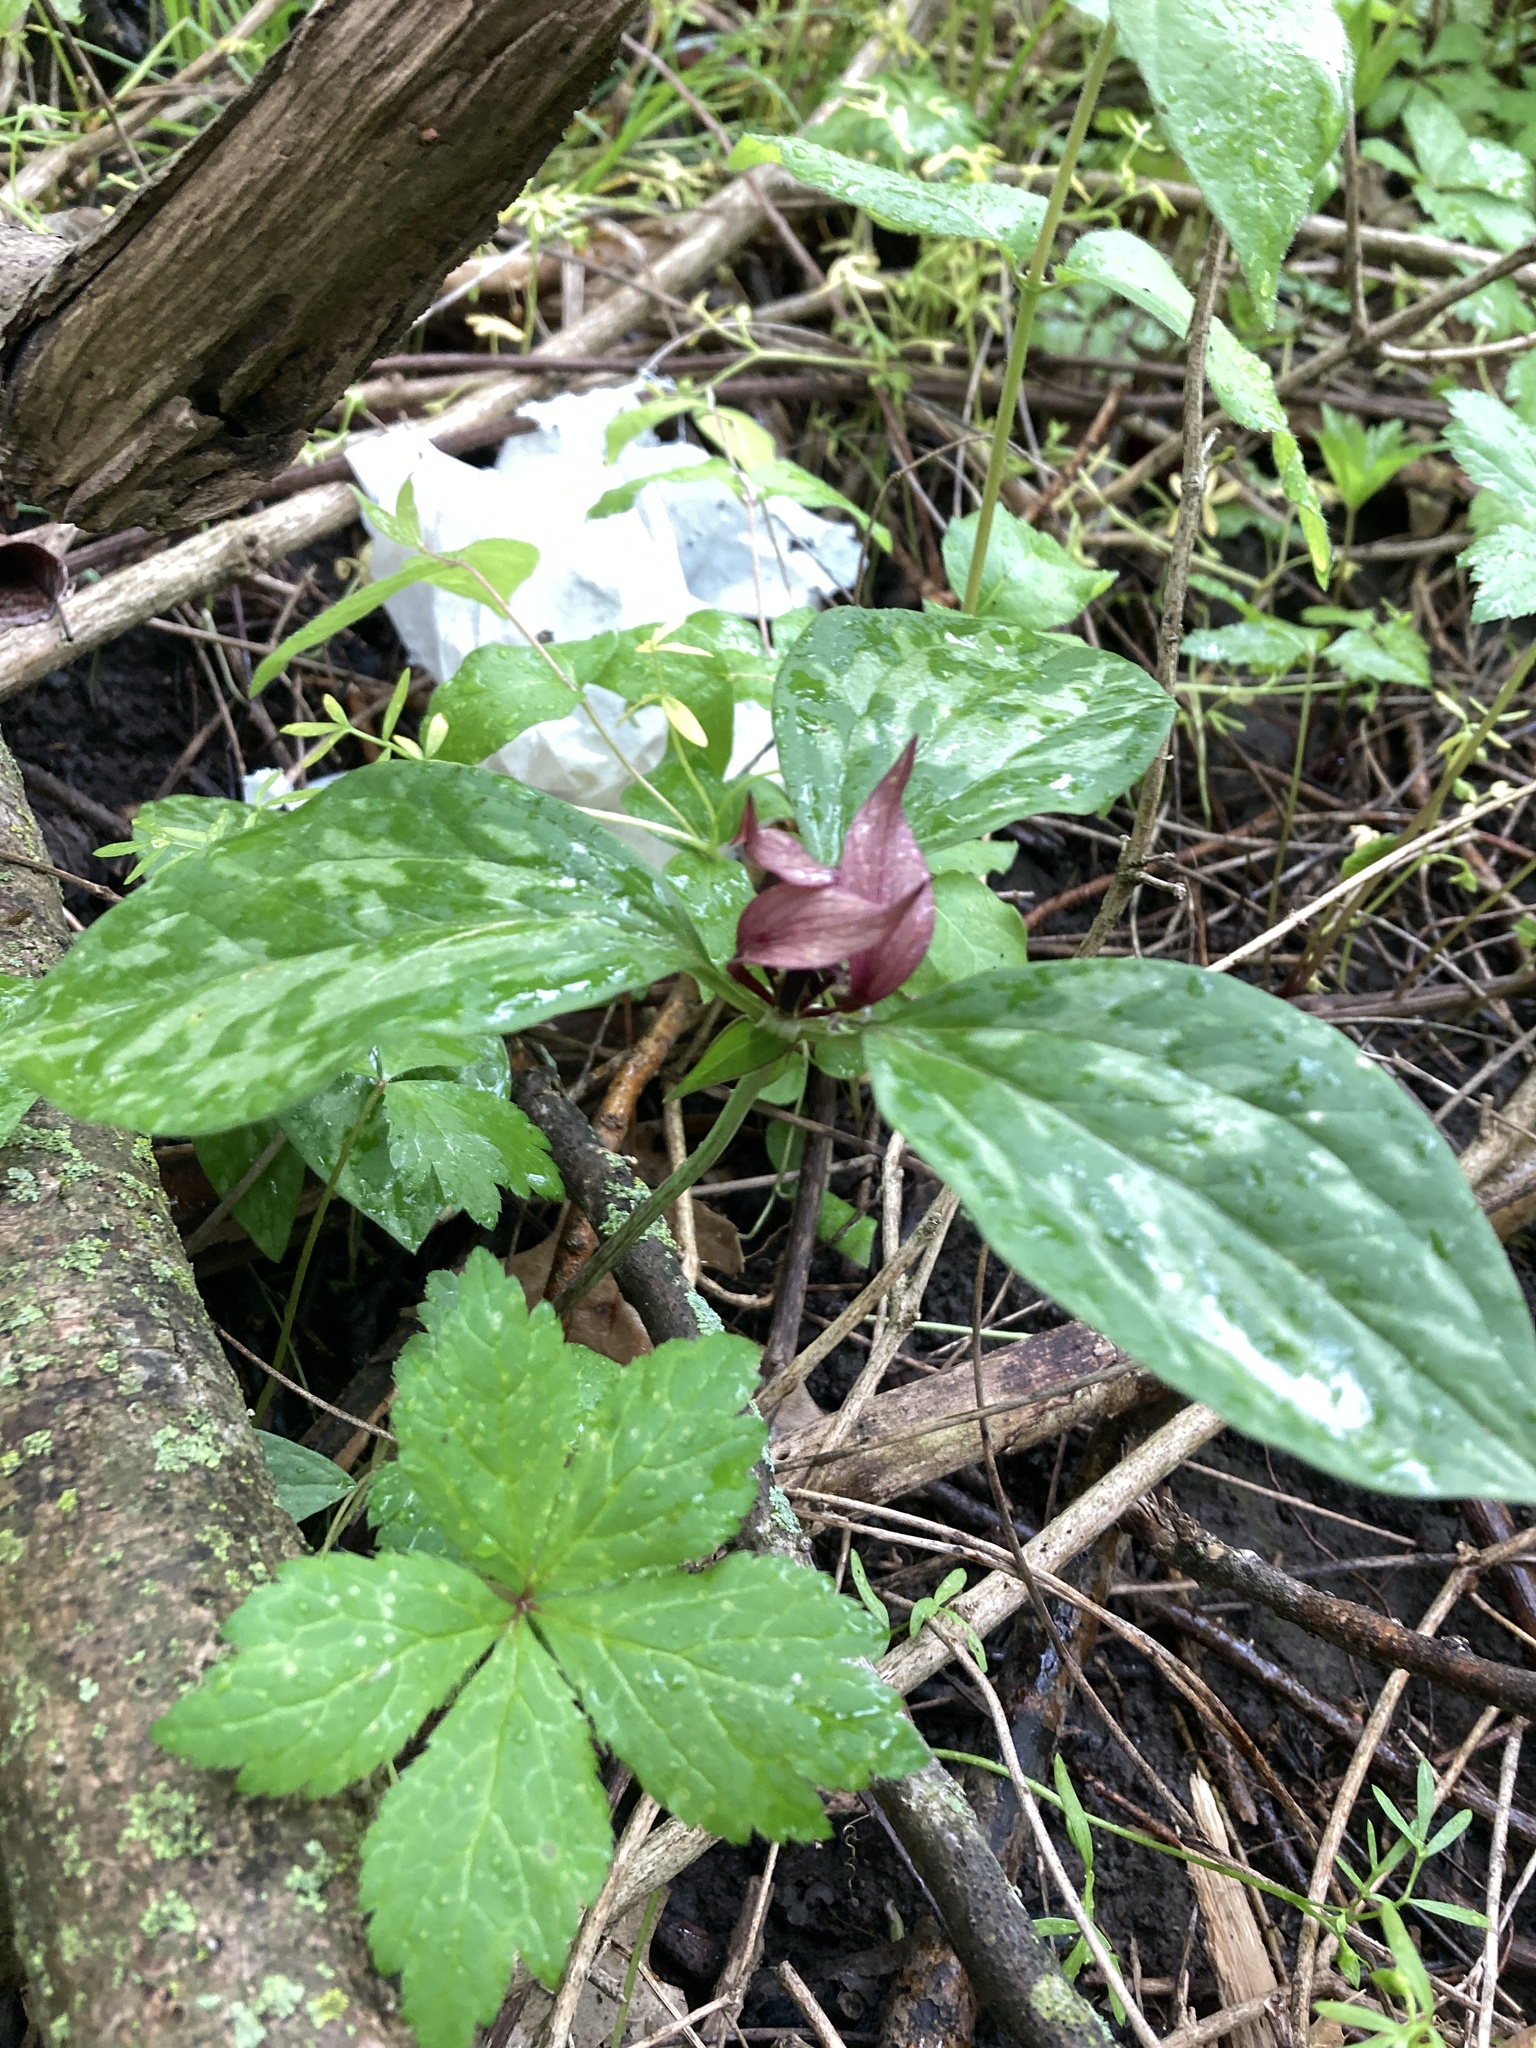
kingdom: Plantae
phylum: Tracheophyta
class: Liliopsida
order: Liliales
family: Melanthiaceae
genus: Trillium
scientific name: Trillium recurvatum
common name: Bloody butcher
